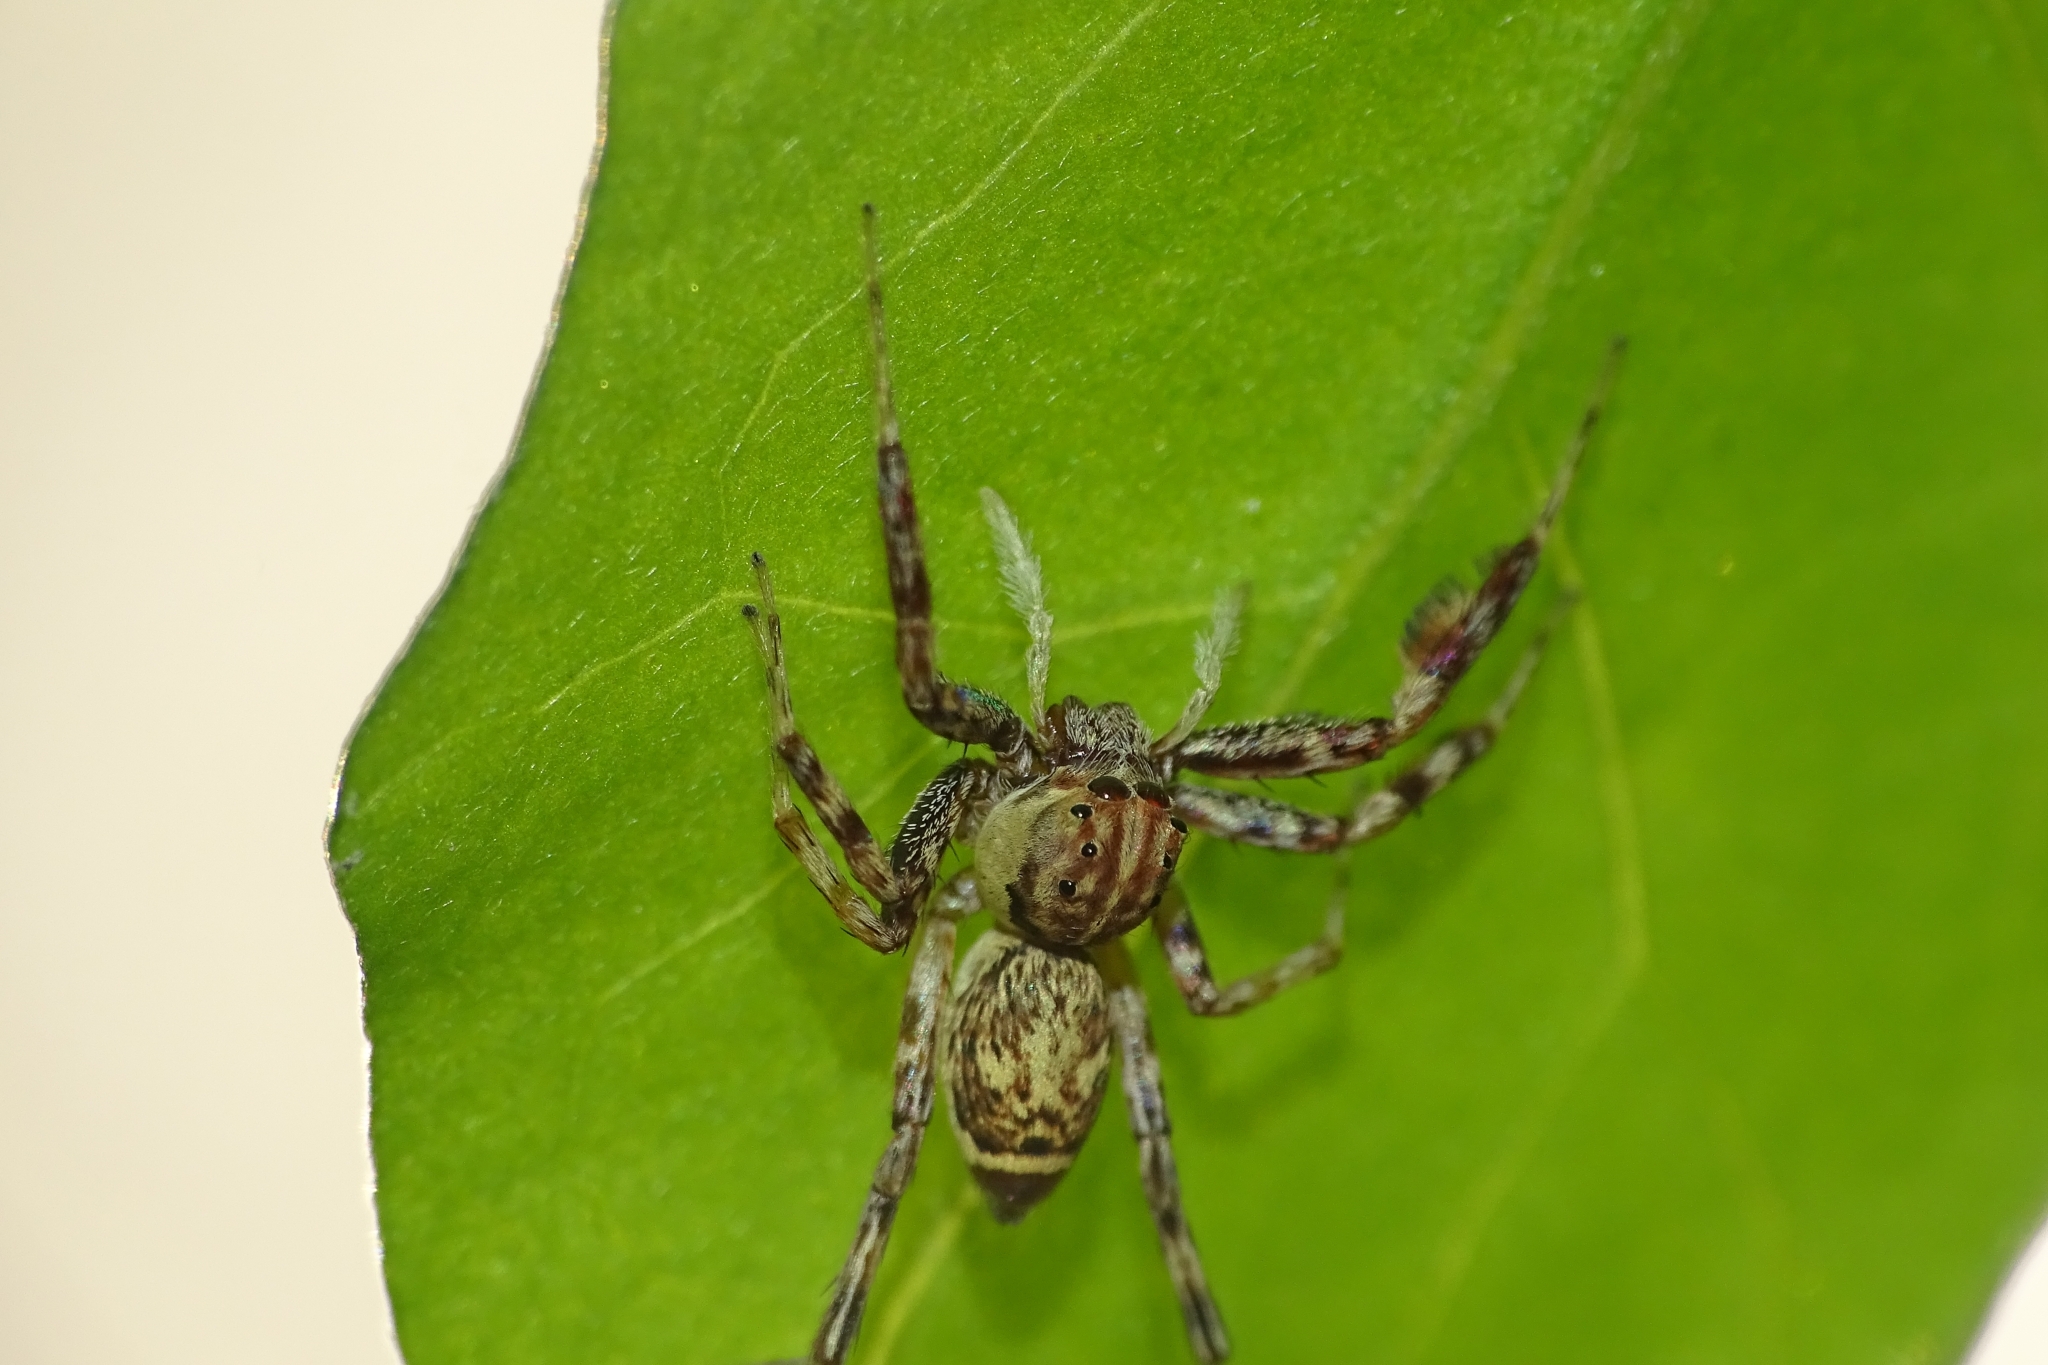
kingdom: Animalia
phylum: Arthropoda
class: Arachnida
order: Araneae
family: Salticidae
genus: Brettus
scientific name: Brettus cingulatus
